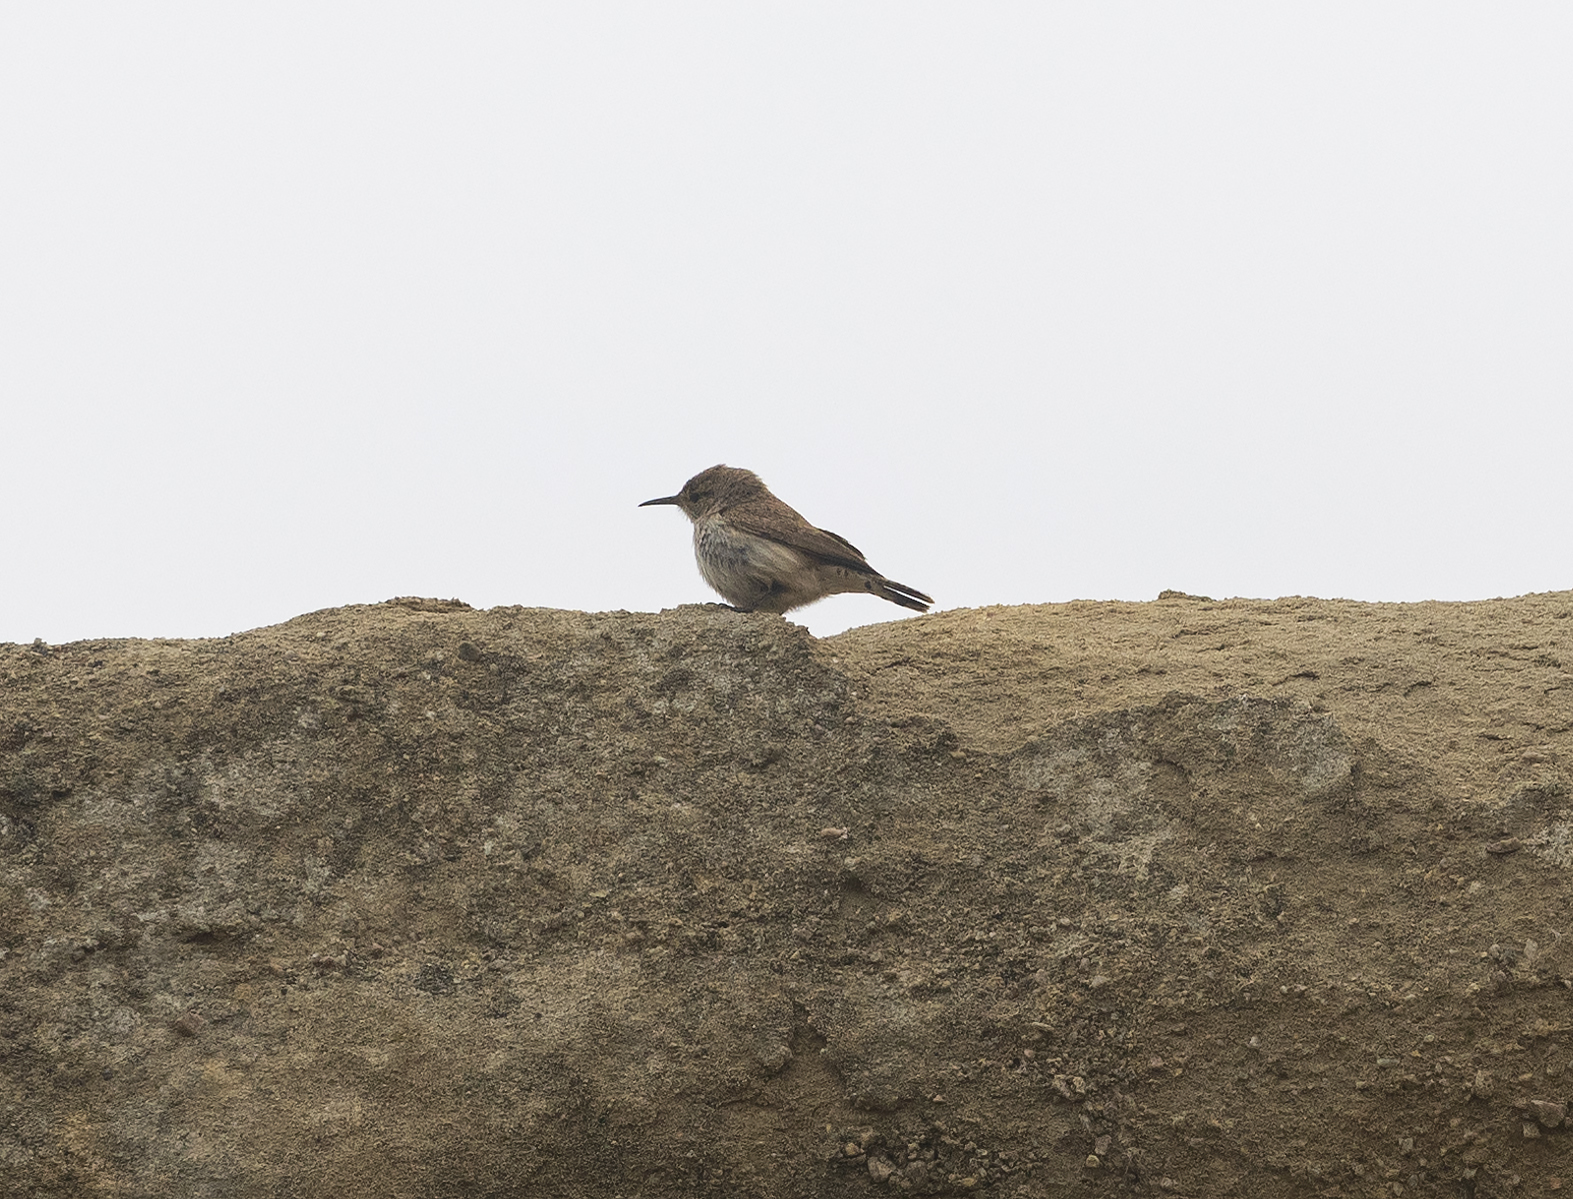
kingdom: Animalia
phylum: Chordata
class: Aves
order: Passeriformes
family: Troglodytidae
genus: Salpinctes
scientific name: Salpinctes obsoletus
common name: Rock wren
